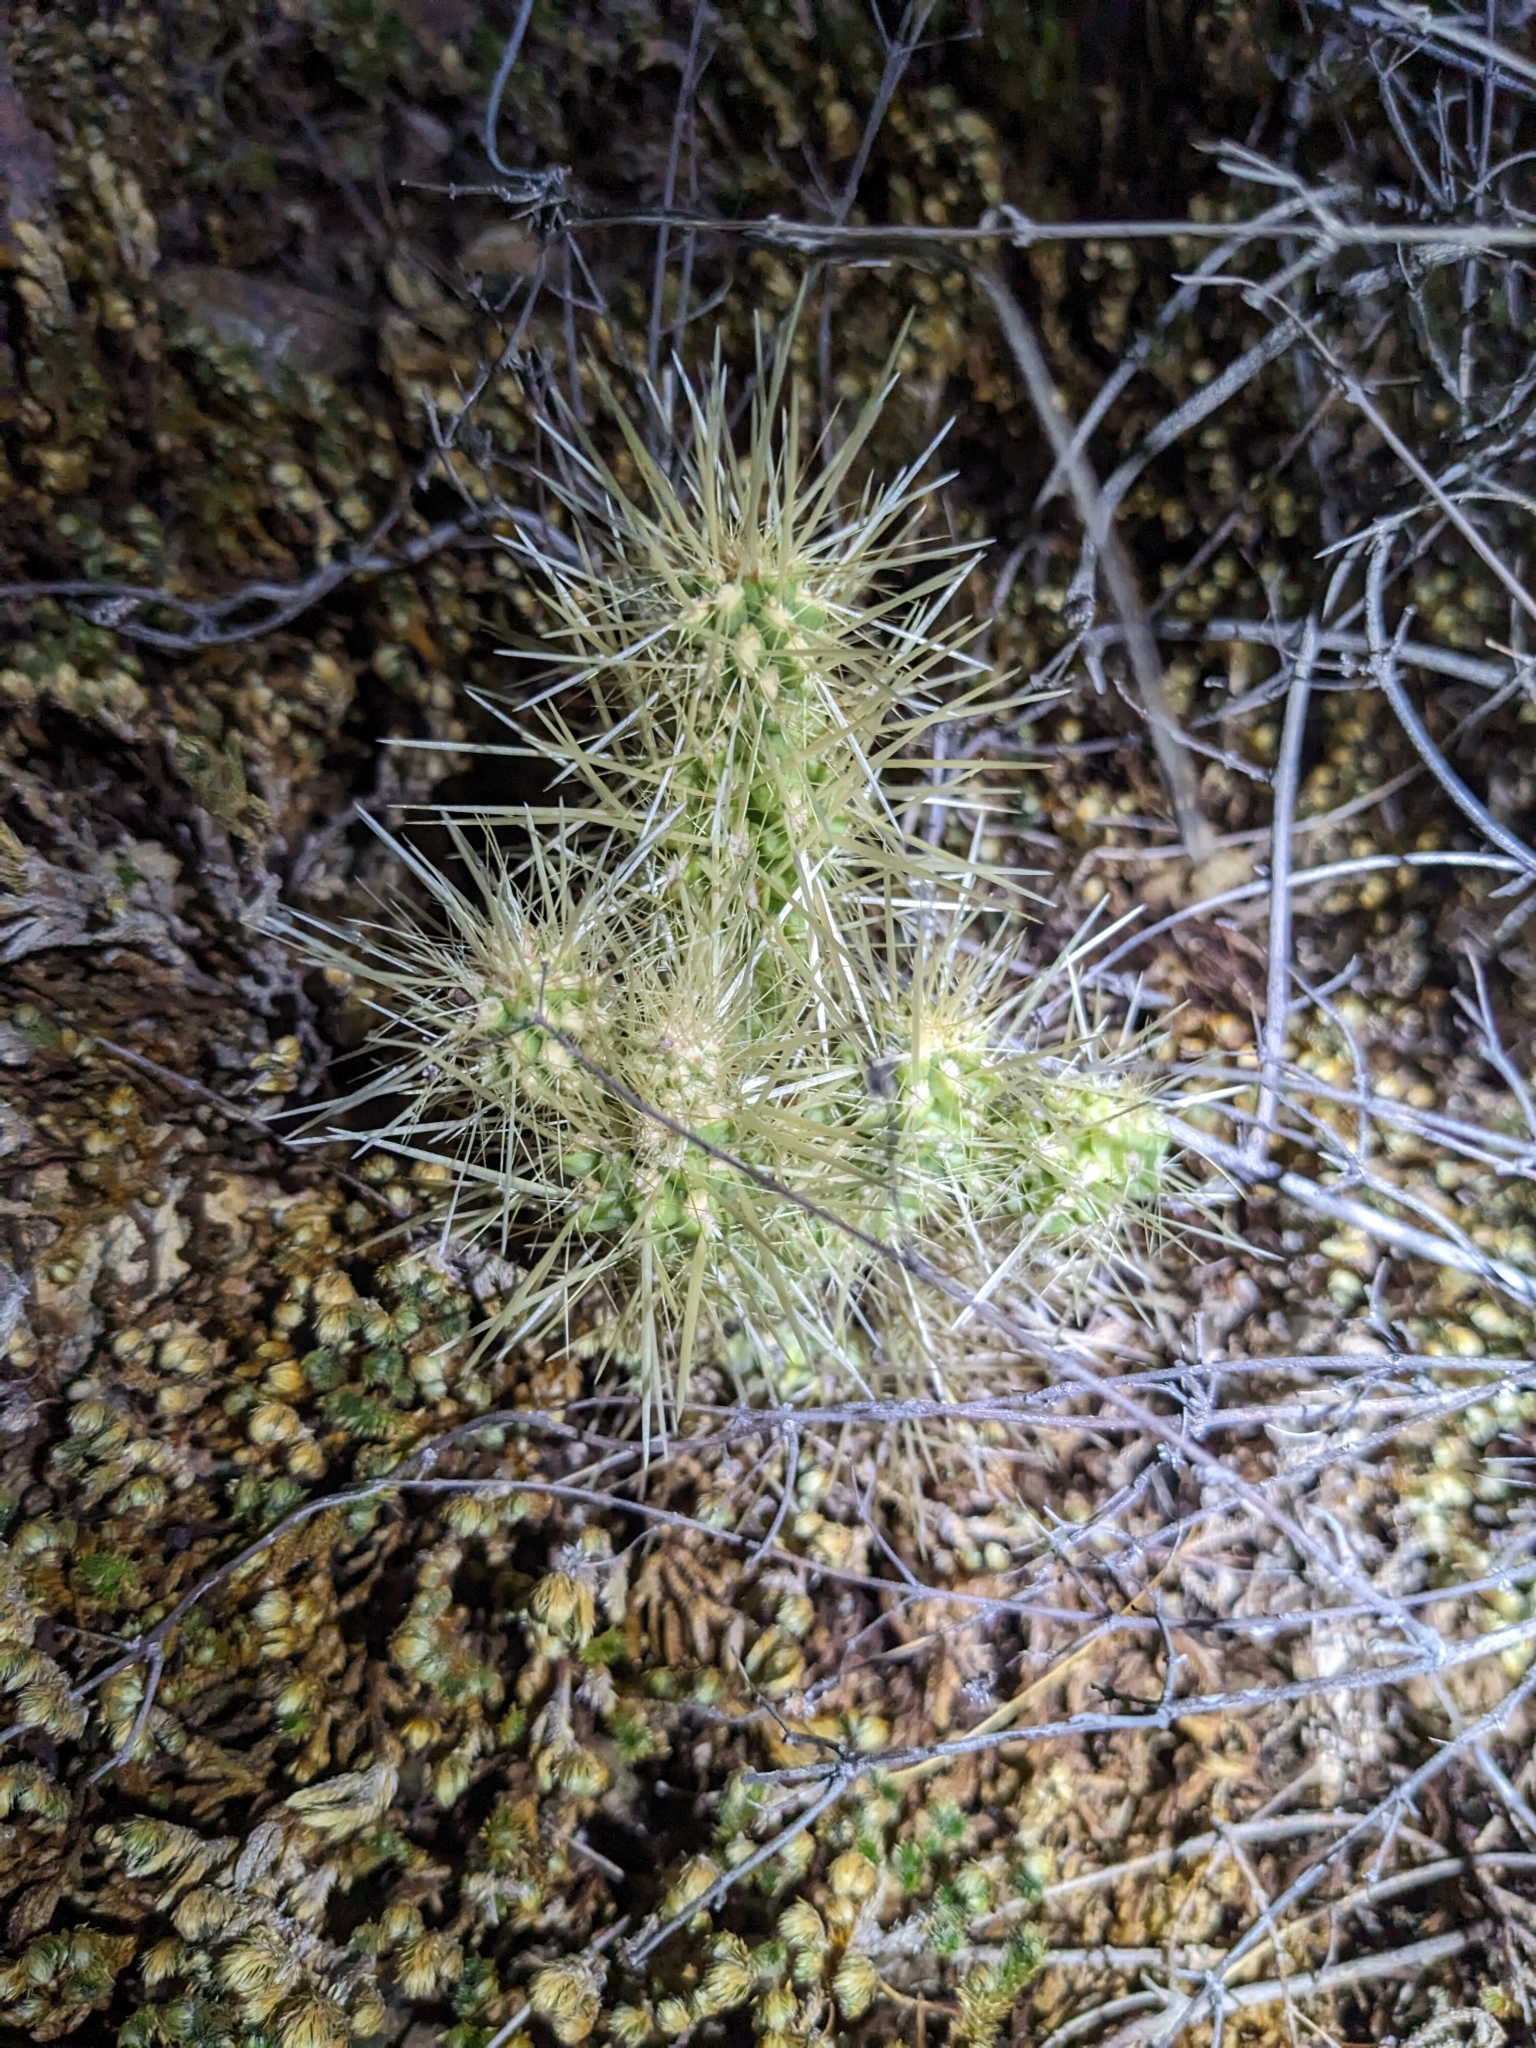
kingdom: Plantae
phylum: Tracheophyta
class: Magnoliopsida
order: Caryophyllales
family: Cactaceae
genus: Cylindropuntia
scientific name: Cylindropuntia fulgida
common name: Jumping cholla
